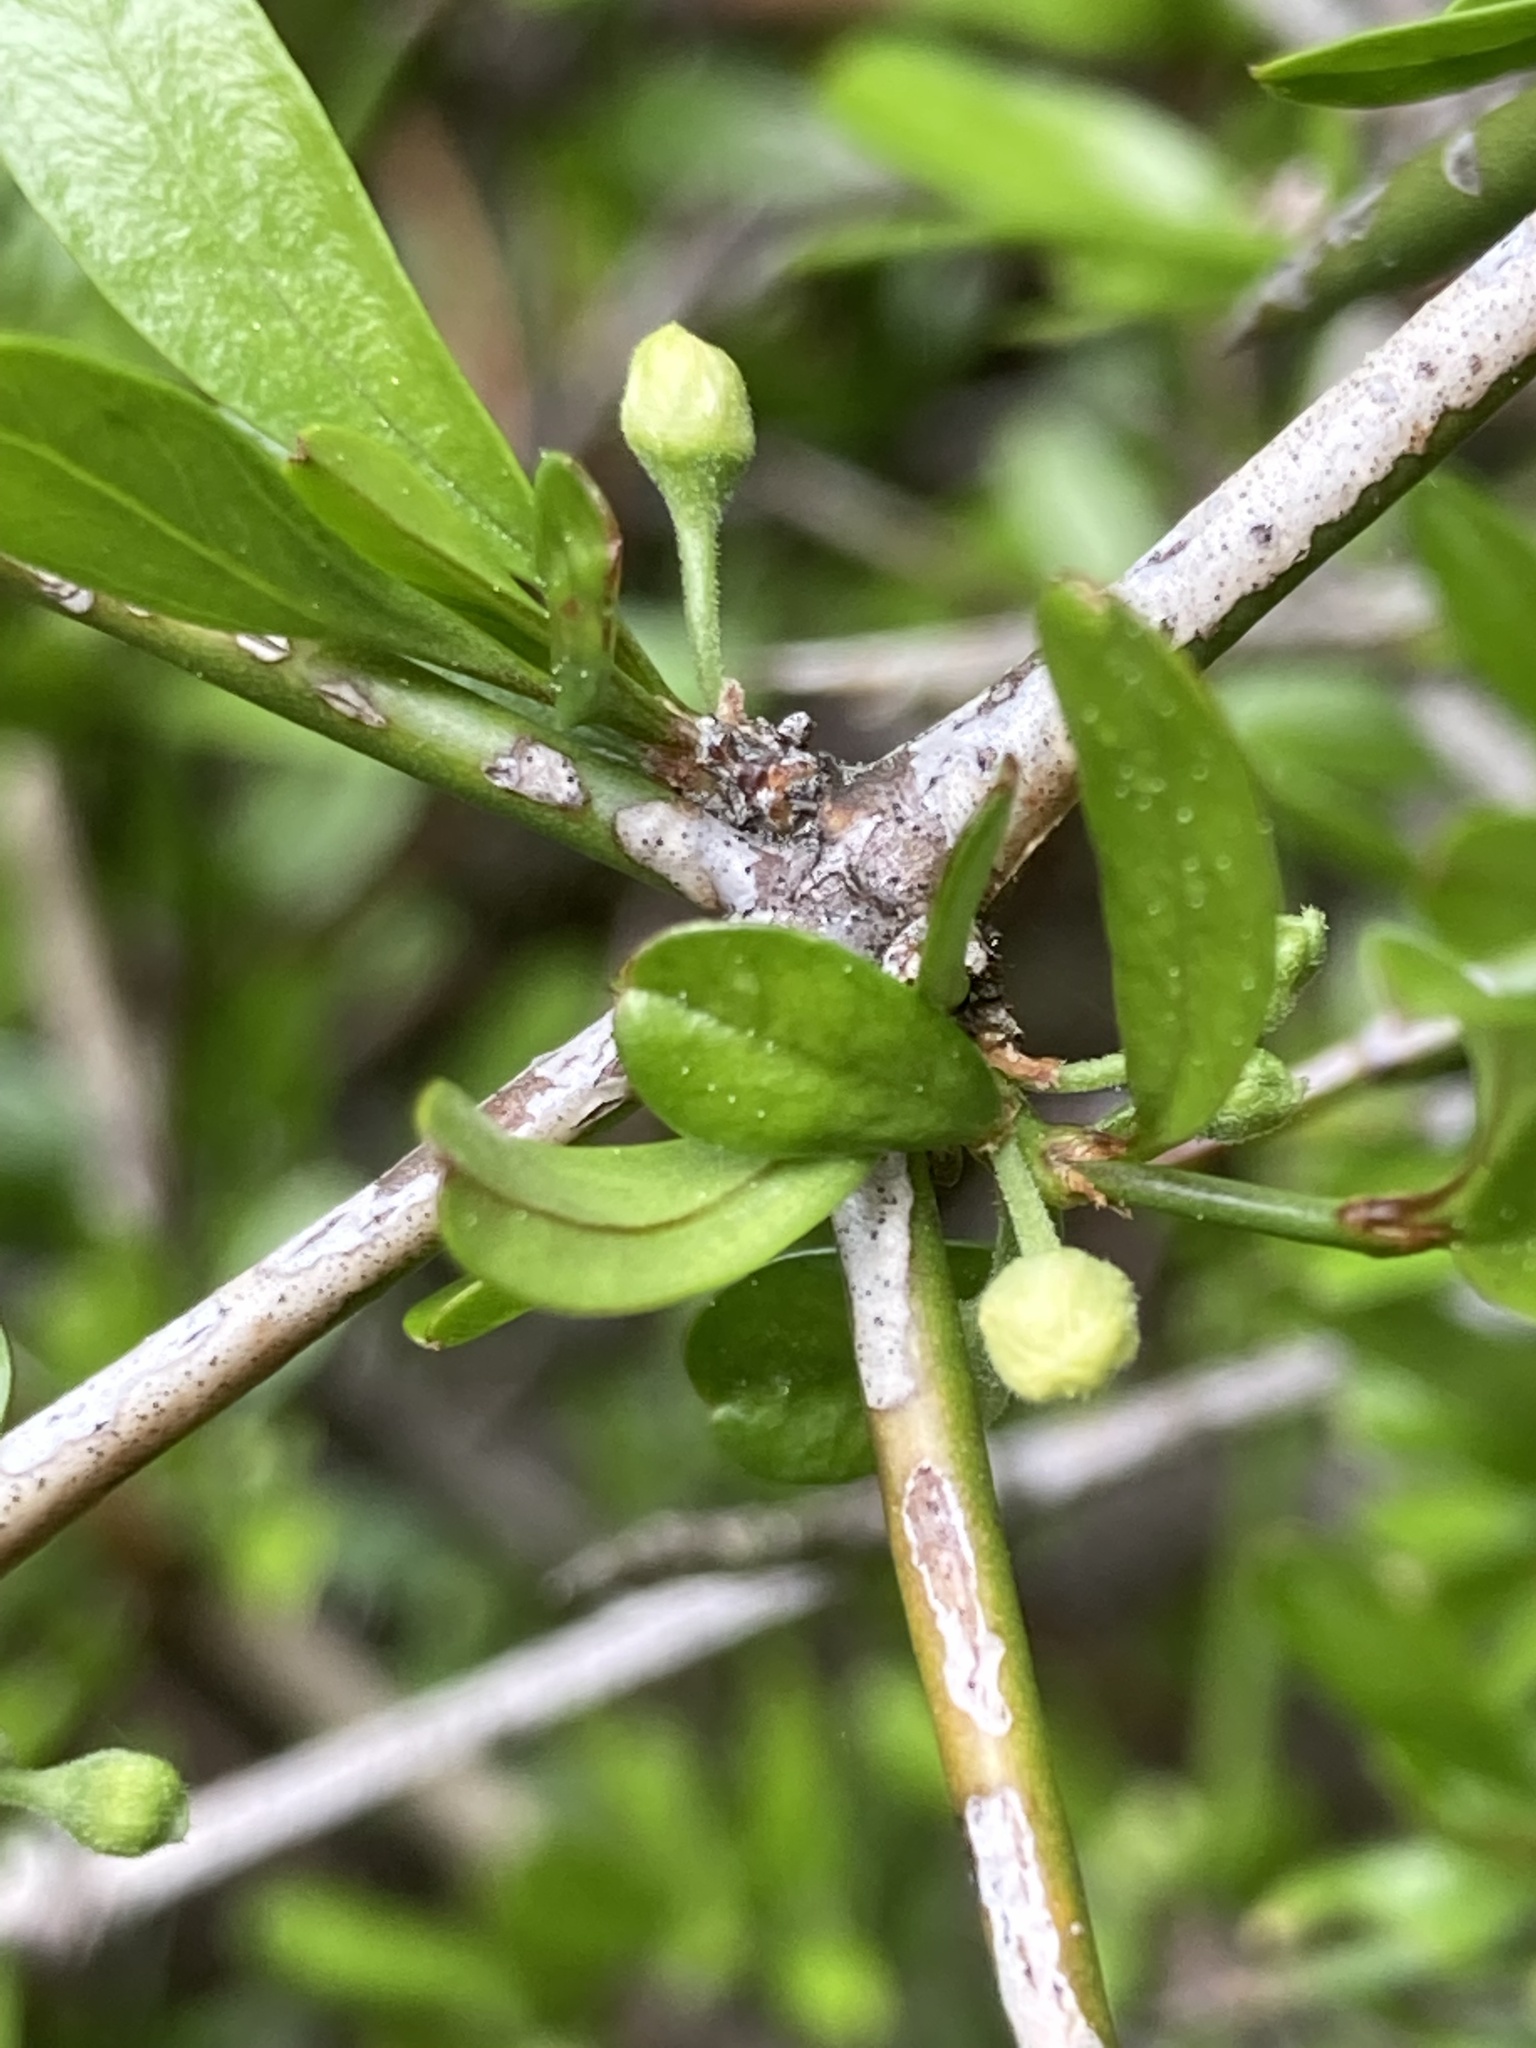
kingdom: Plantae
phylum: Tracheophyta
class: Magnoliopsida
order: Rosales
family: Rhamnaceae
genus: Discaria
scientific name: Discaria toumatou
